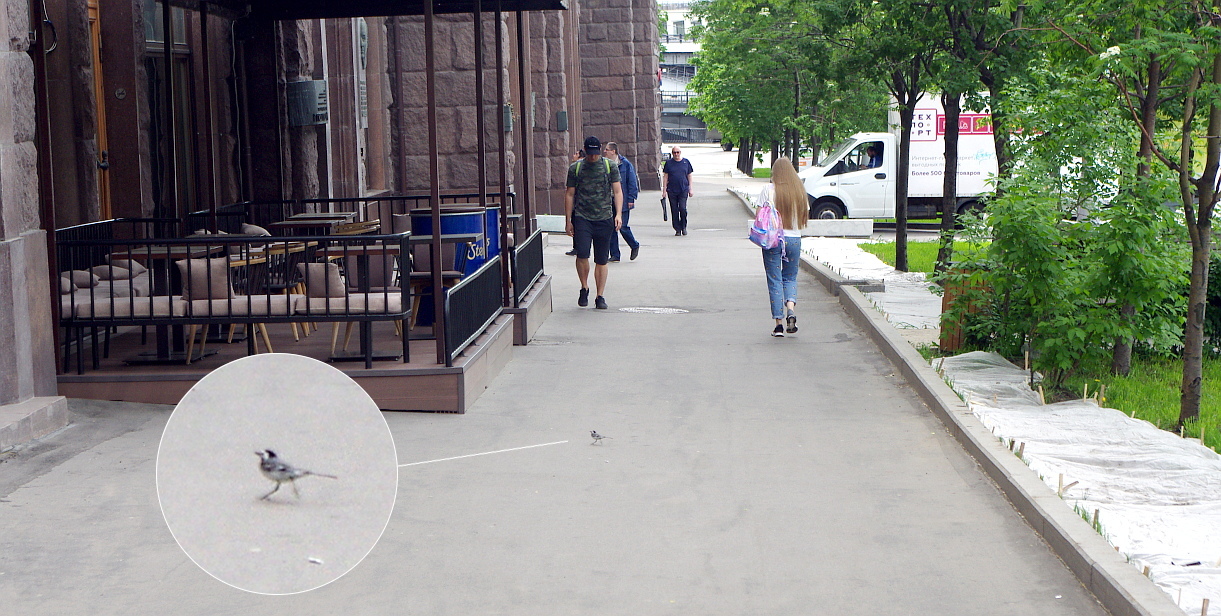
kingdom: Animalia
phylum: Chordata
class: Aves
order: Passeriformes
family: Motacillidae
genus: Motacilla
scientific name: Motacilla alba
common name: White wagtail
